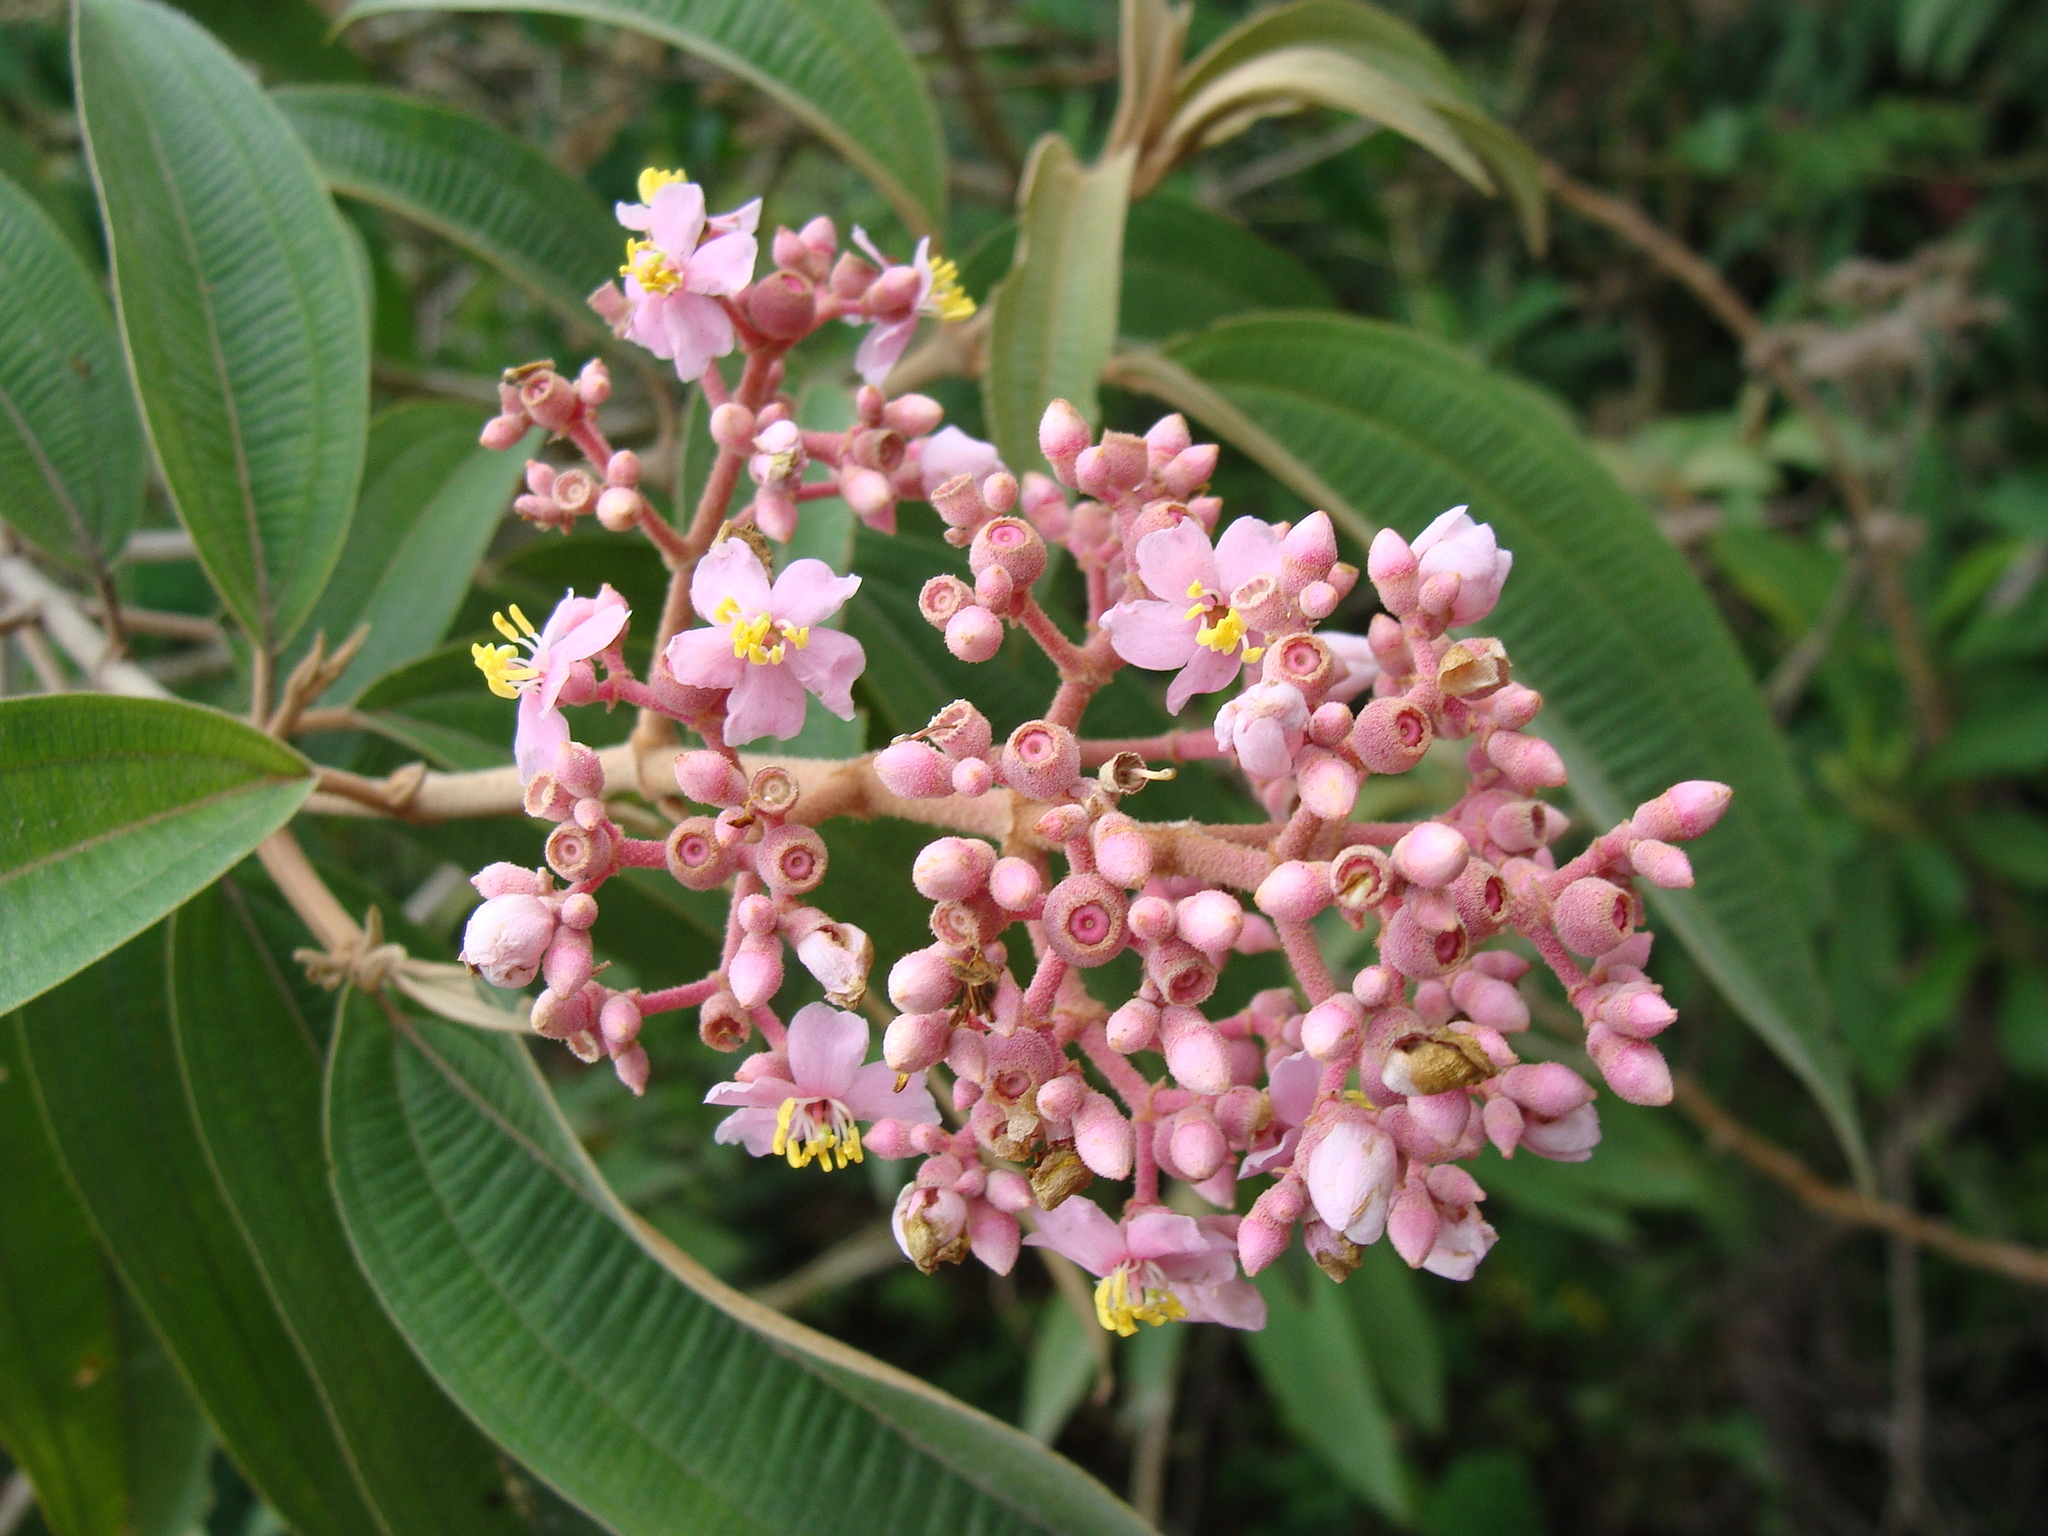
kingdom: Plantae
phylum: Tracheophyta
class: Magnoliopsida
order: Myrtales
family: Melastomataceae
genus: Miconia
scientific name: Miconia xalapensis
